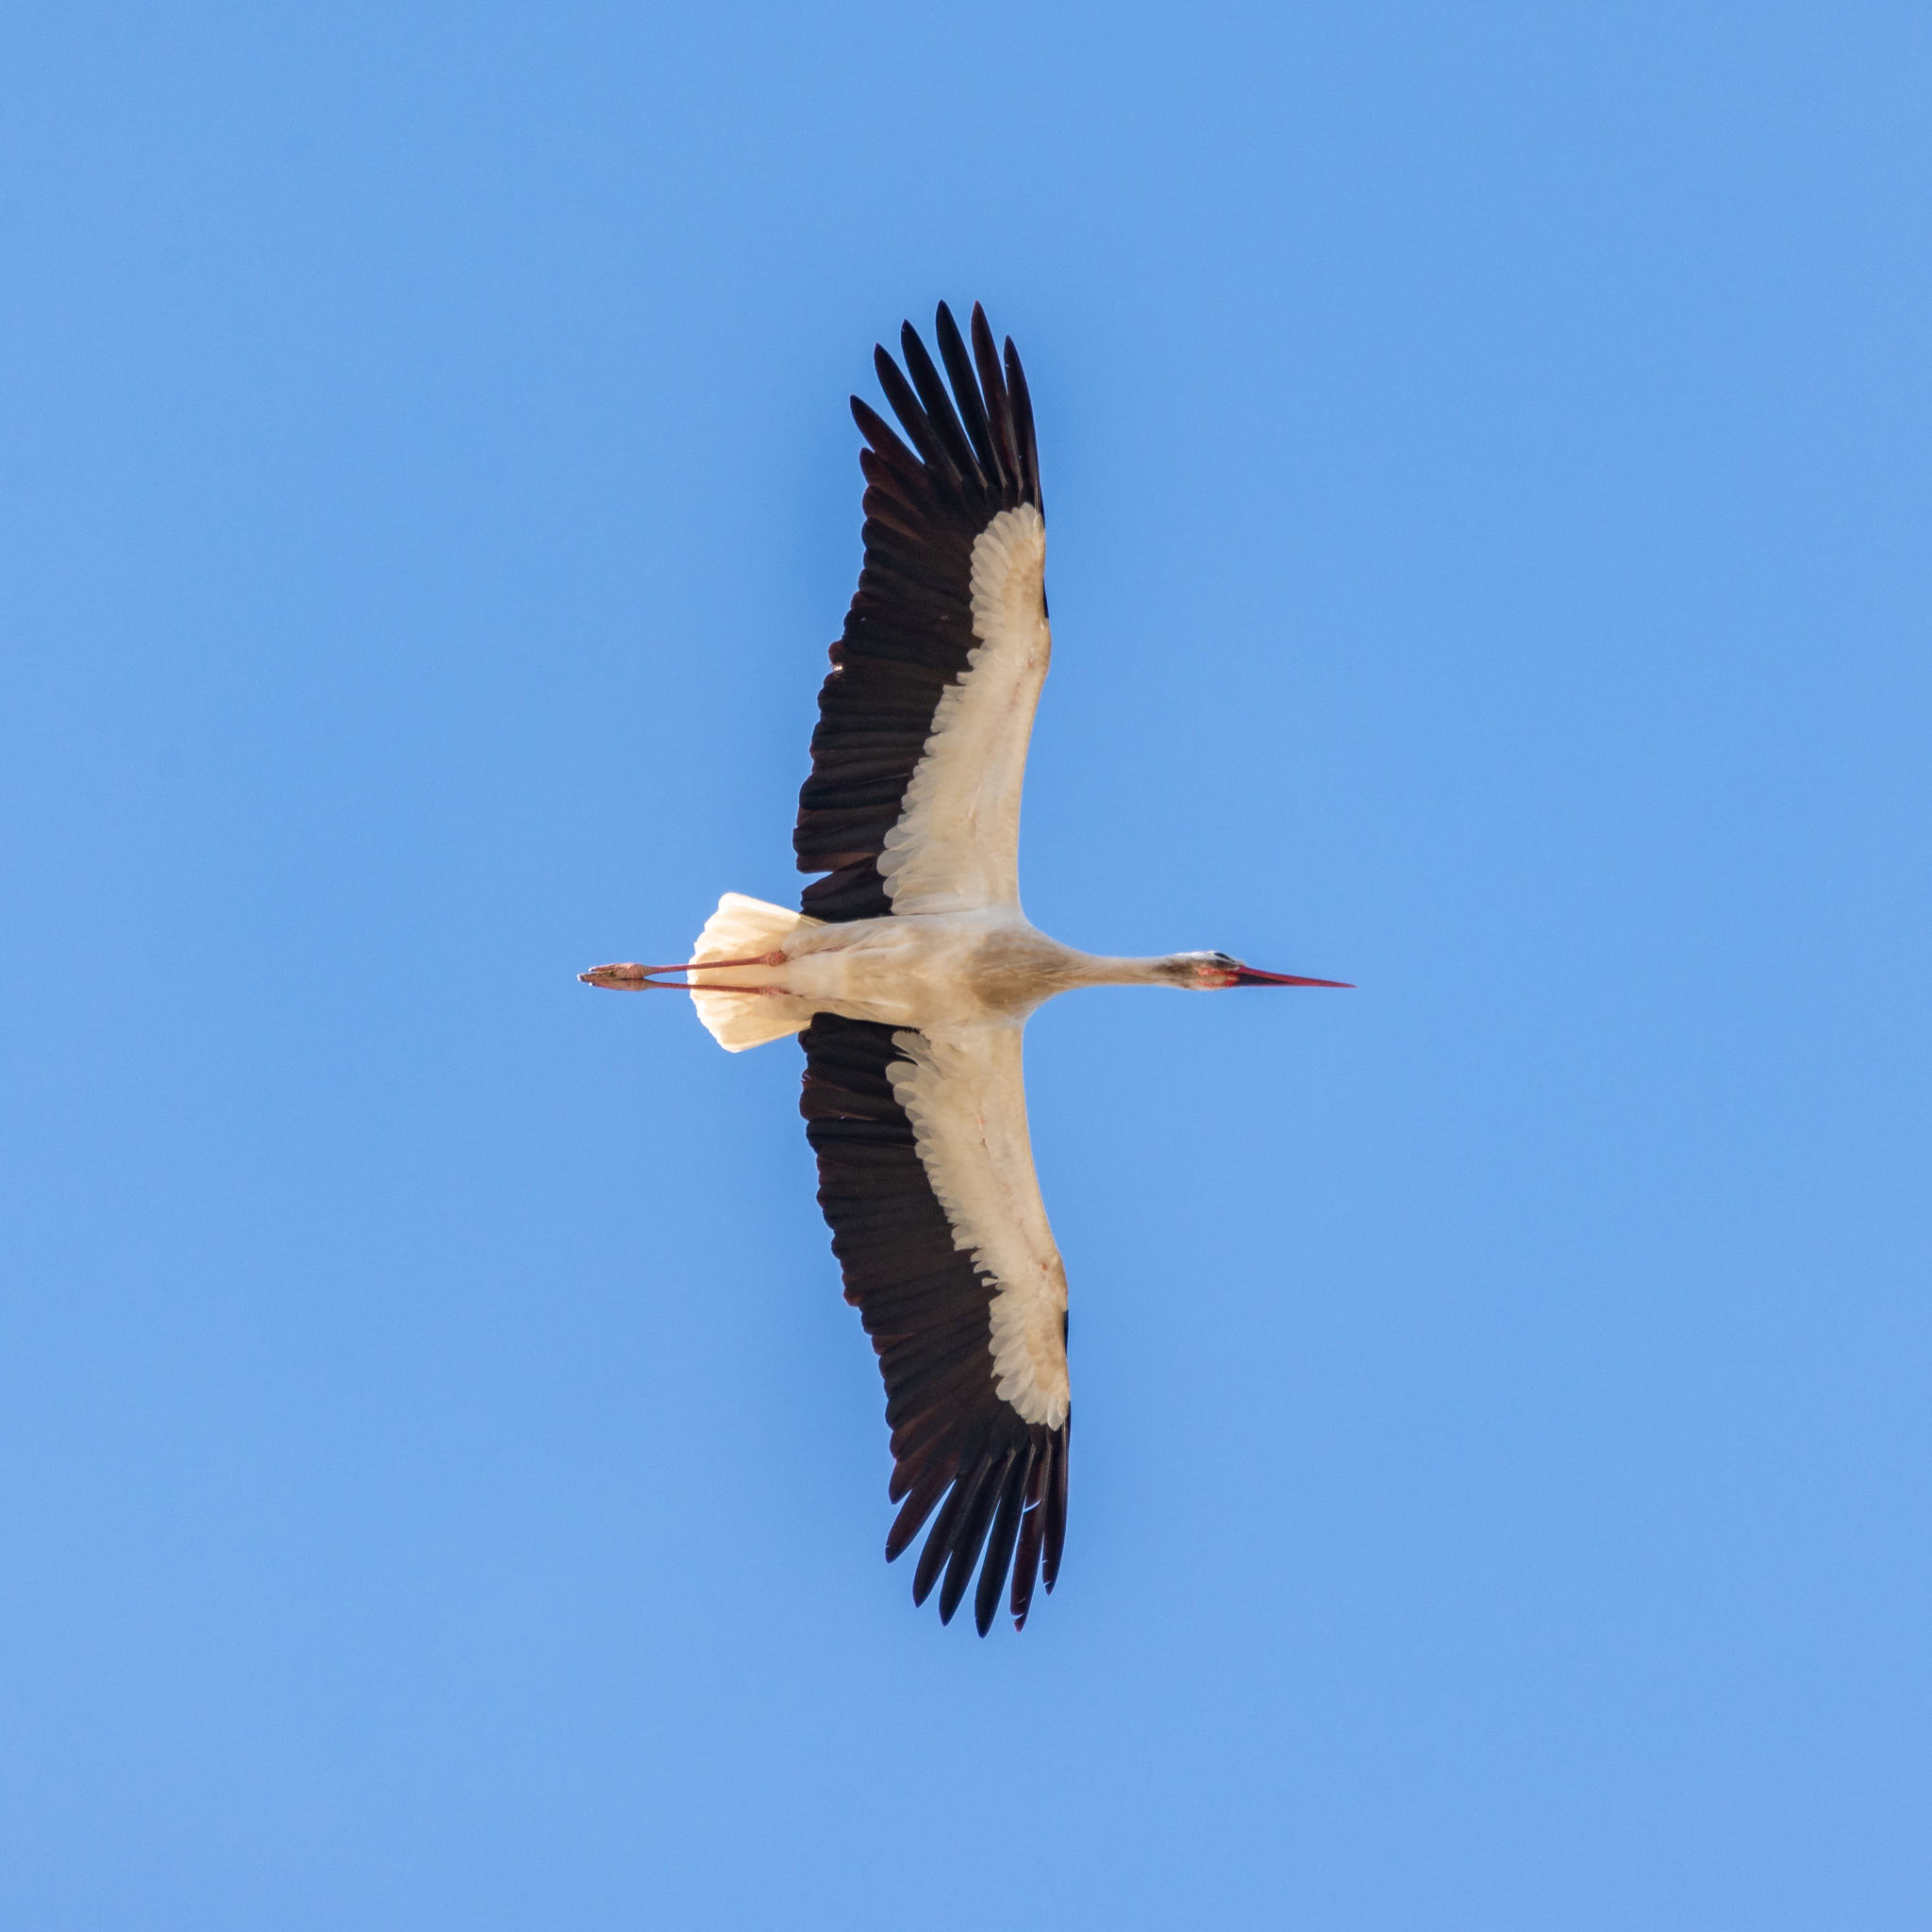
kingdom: Animalia
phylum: Chordata
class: Aves
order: Ciconiiformes
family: Ciconiidae
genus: Ciconia
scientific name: Ciconia ciconia
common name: White stork
